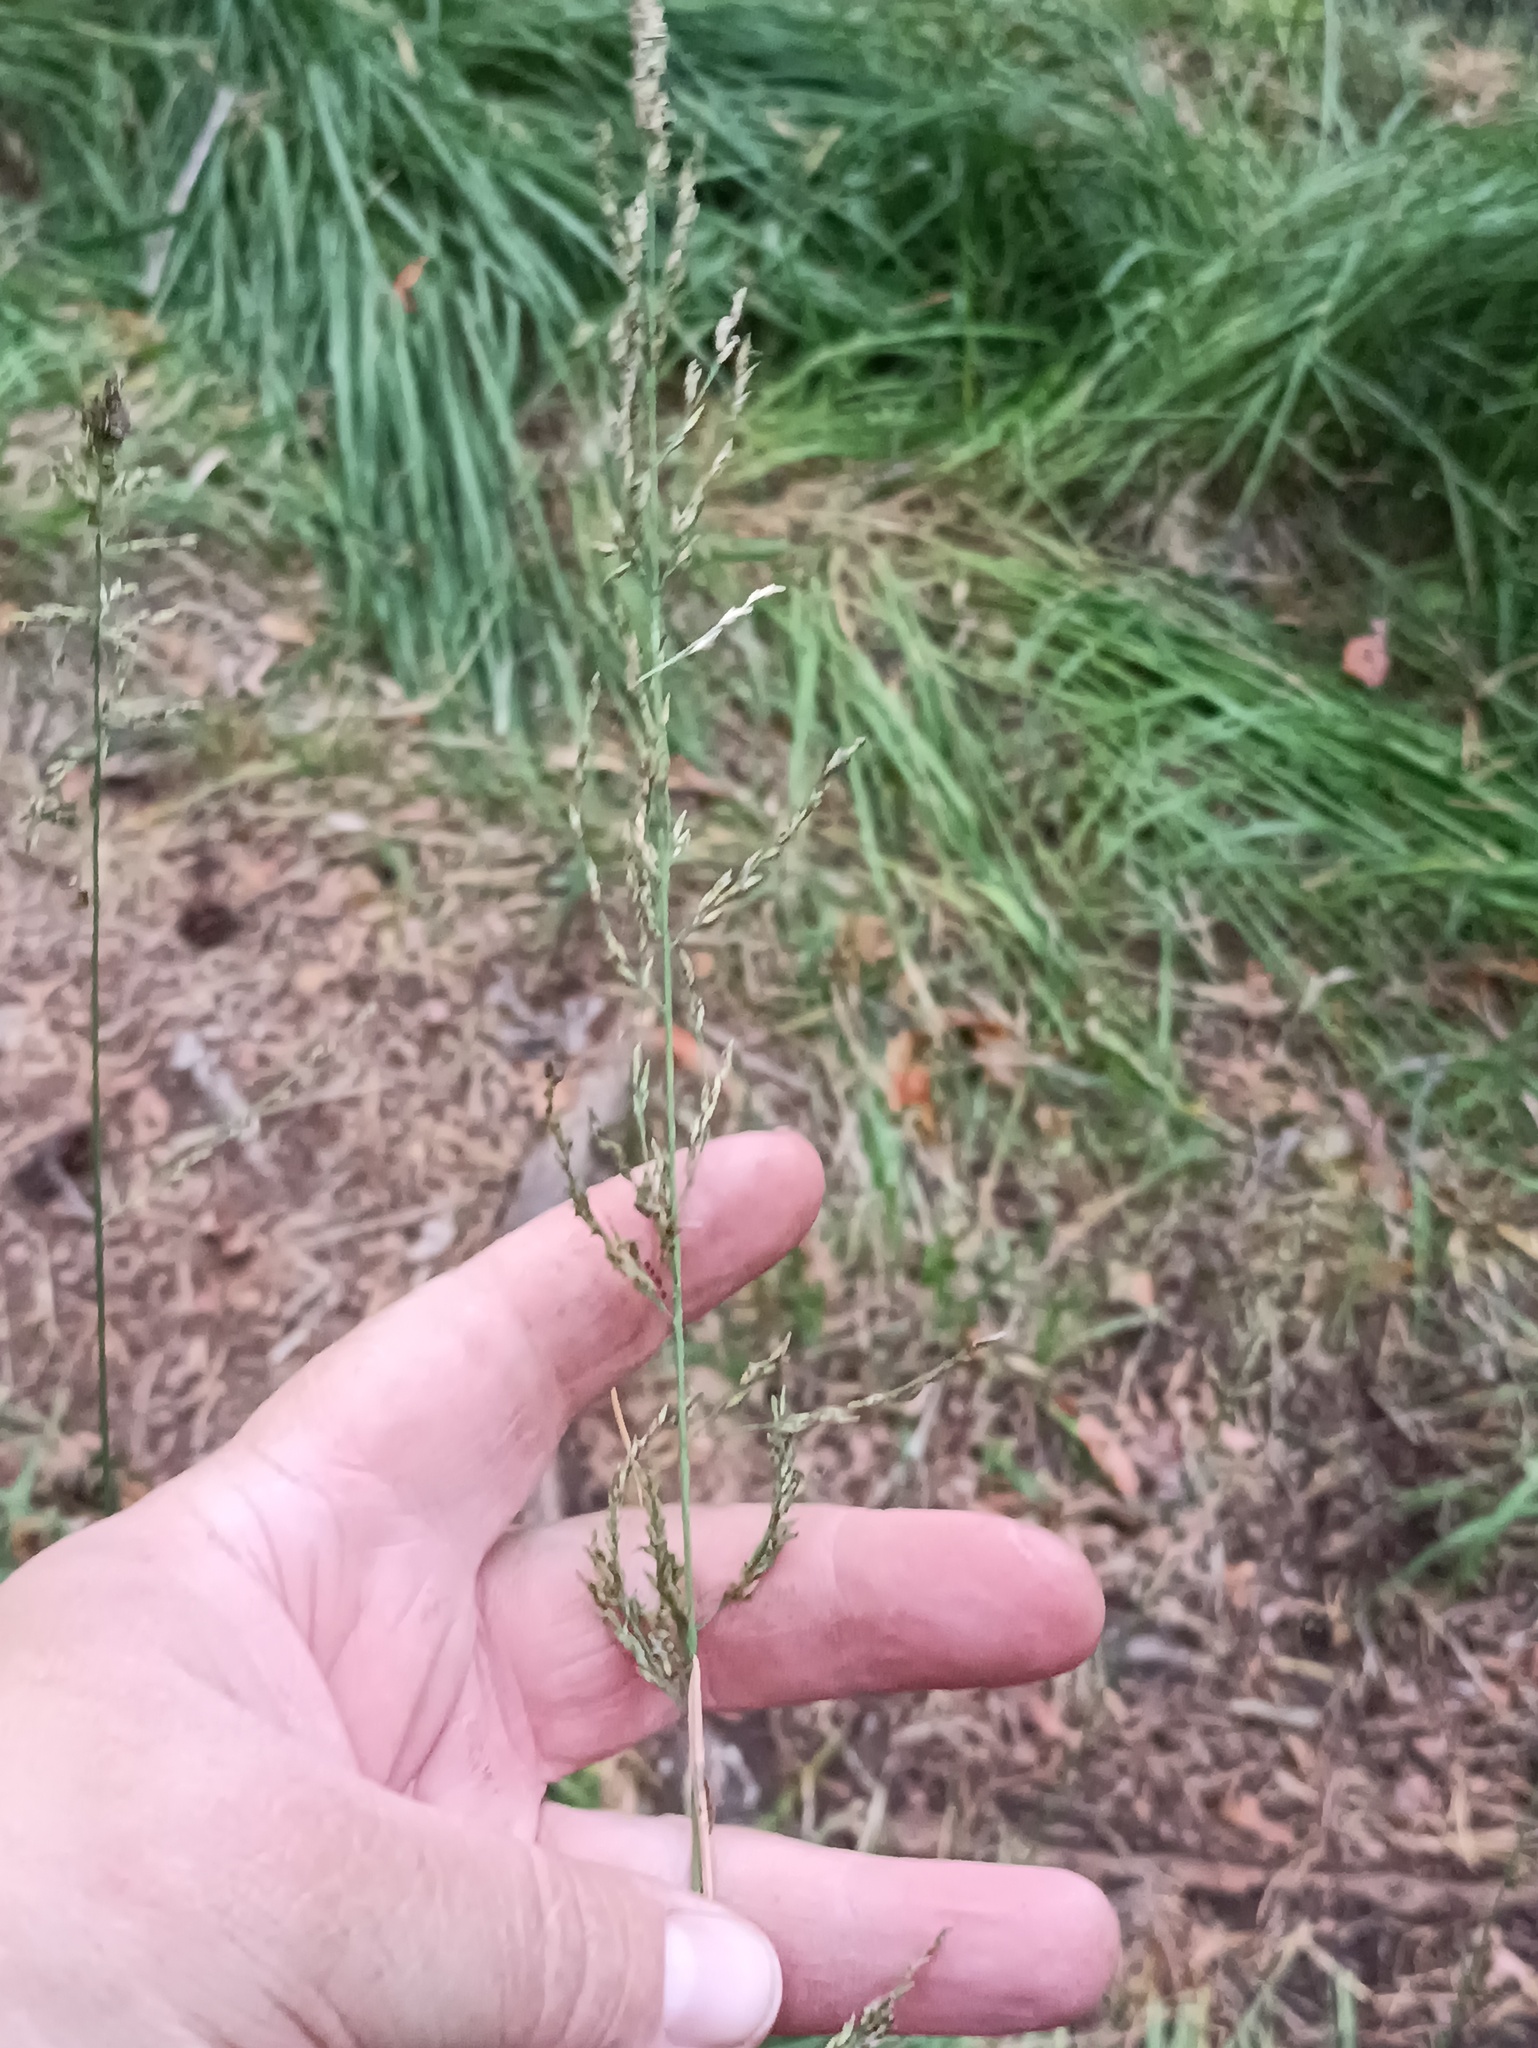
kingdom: Plantae
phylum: Tracheophyta
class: Liliopsida
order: Poales
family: Poaceae
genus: Molinia
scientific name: Molinia caerulea
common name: Purple moor-grass
